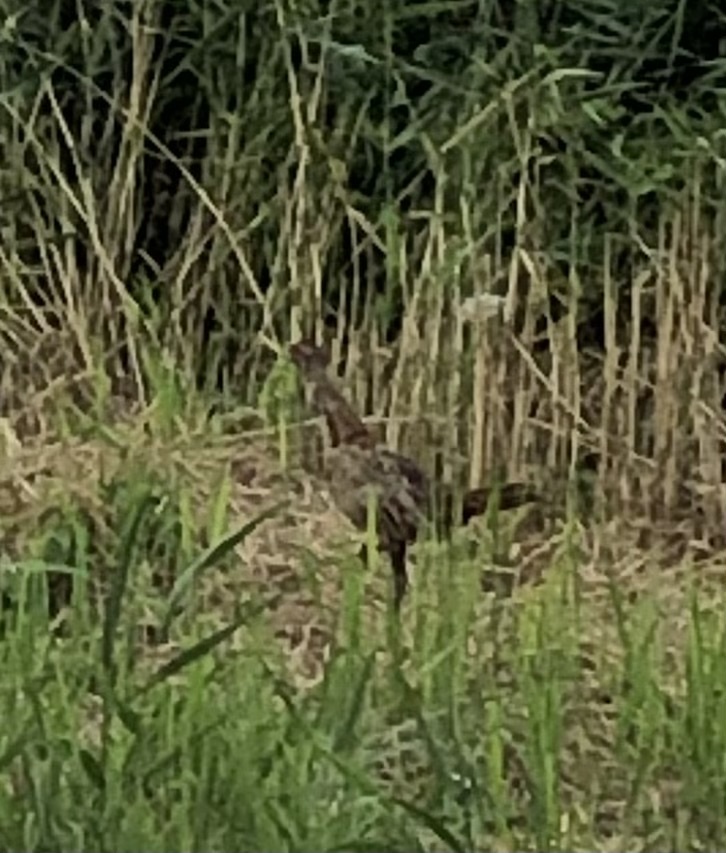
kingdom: Animalia
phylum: Chordata
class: Aves
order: Galliformes
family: Phasianidae
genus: Phasianus
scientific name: Phasianus colchicus
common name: Common pheasant
